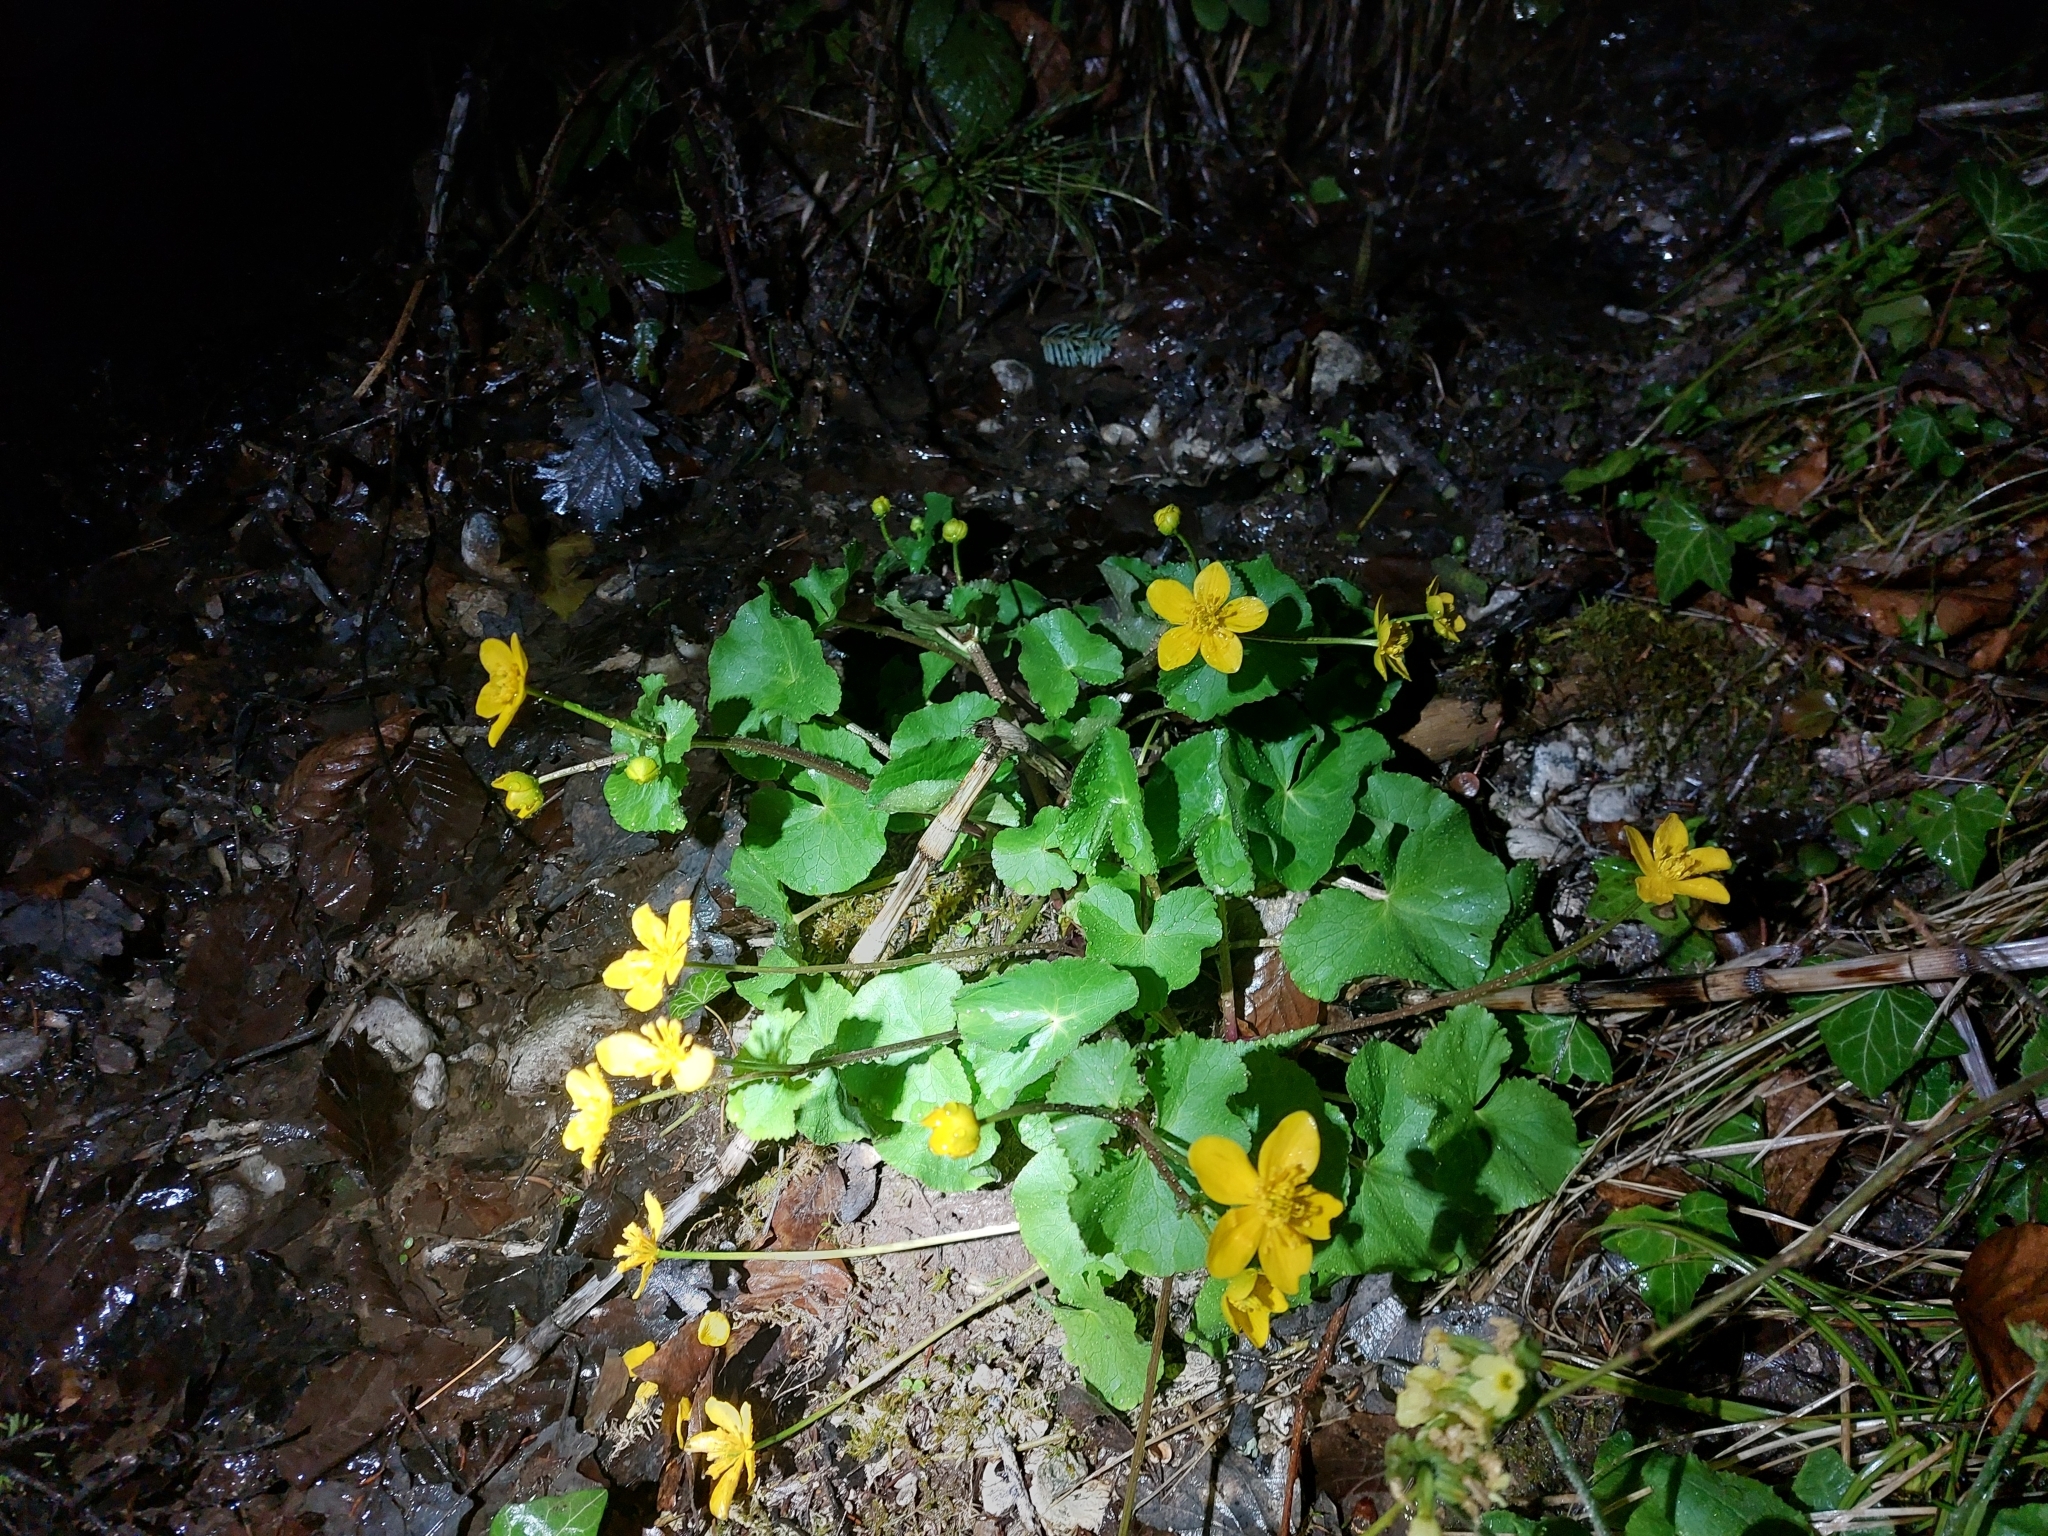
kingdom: Plantae
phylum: Tracheophyta
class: Magnoliopsida
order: Ranunculales
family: Ranunculaceae
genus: Caltha
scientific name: Caltha palustris
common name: Marsh marigold
